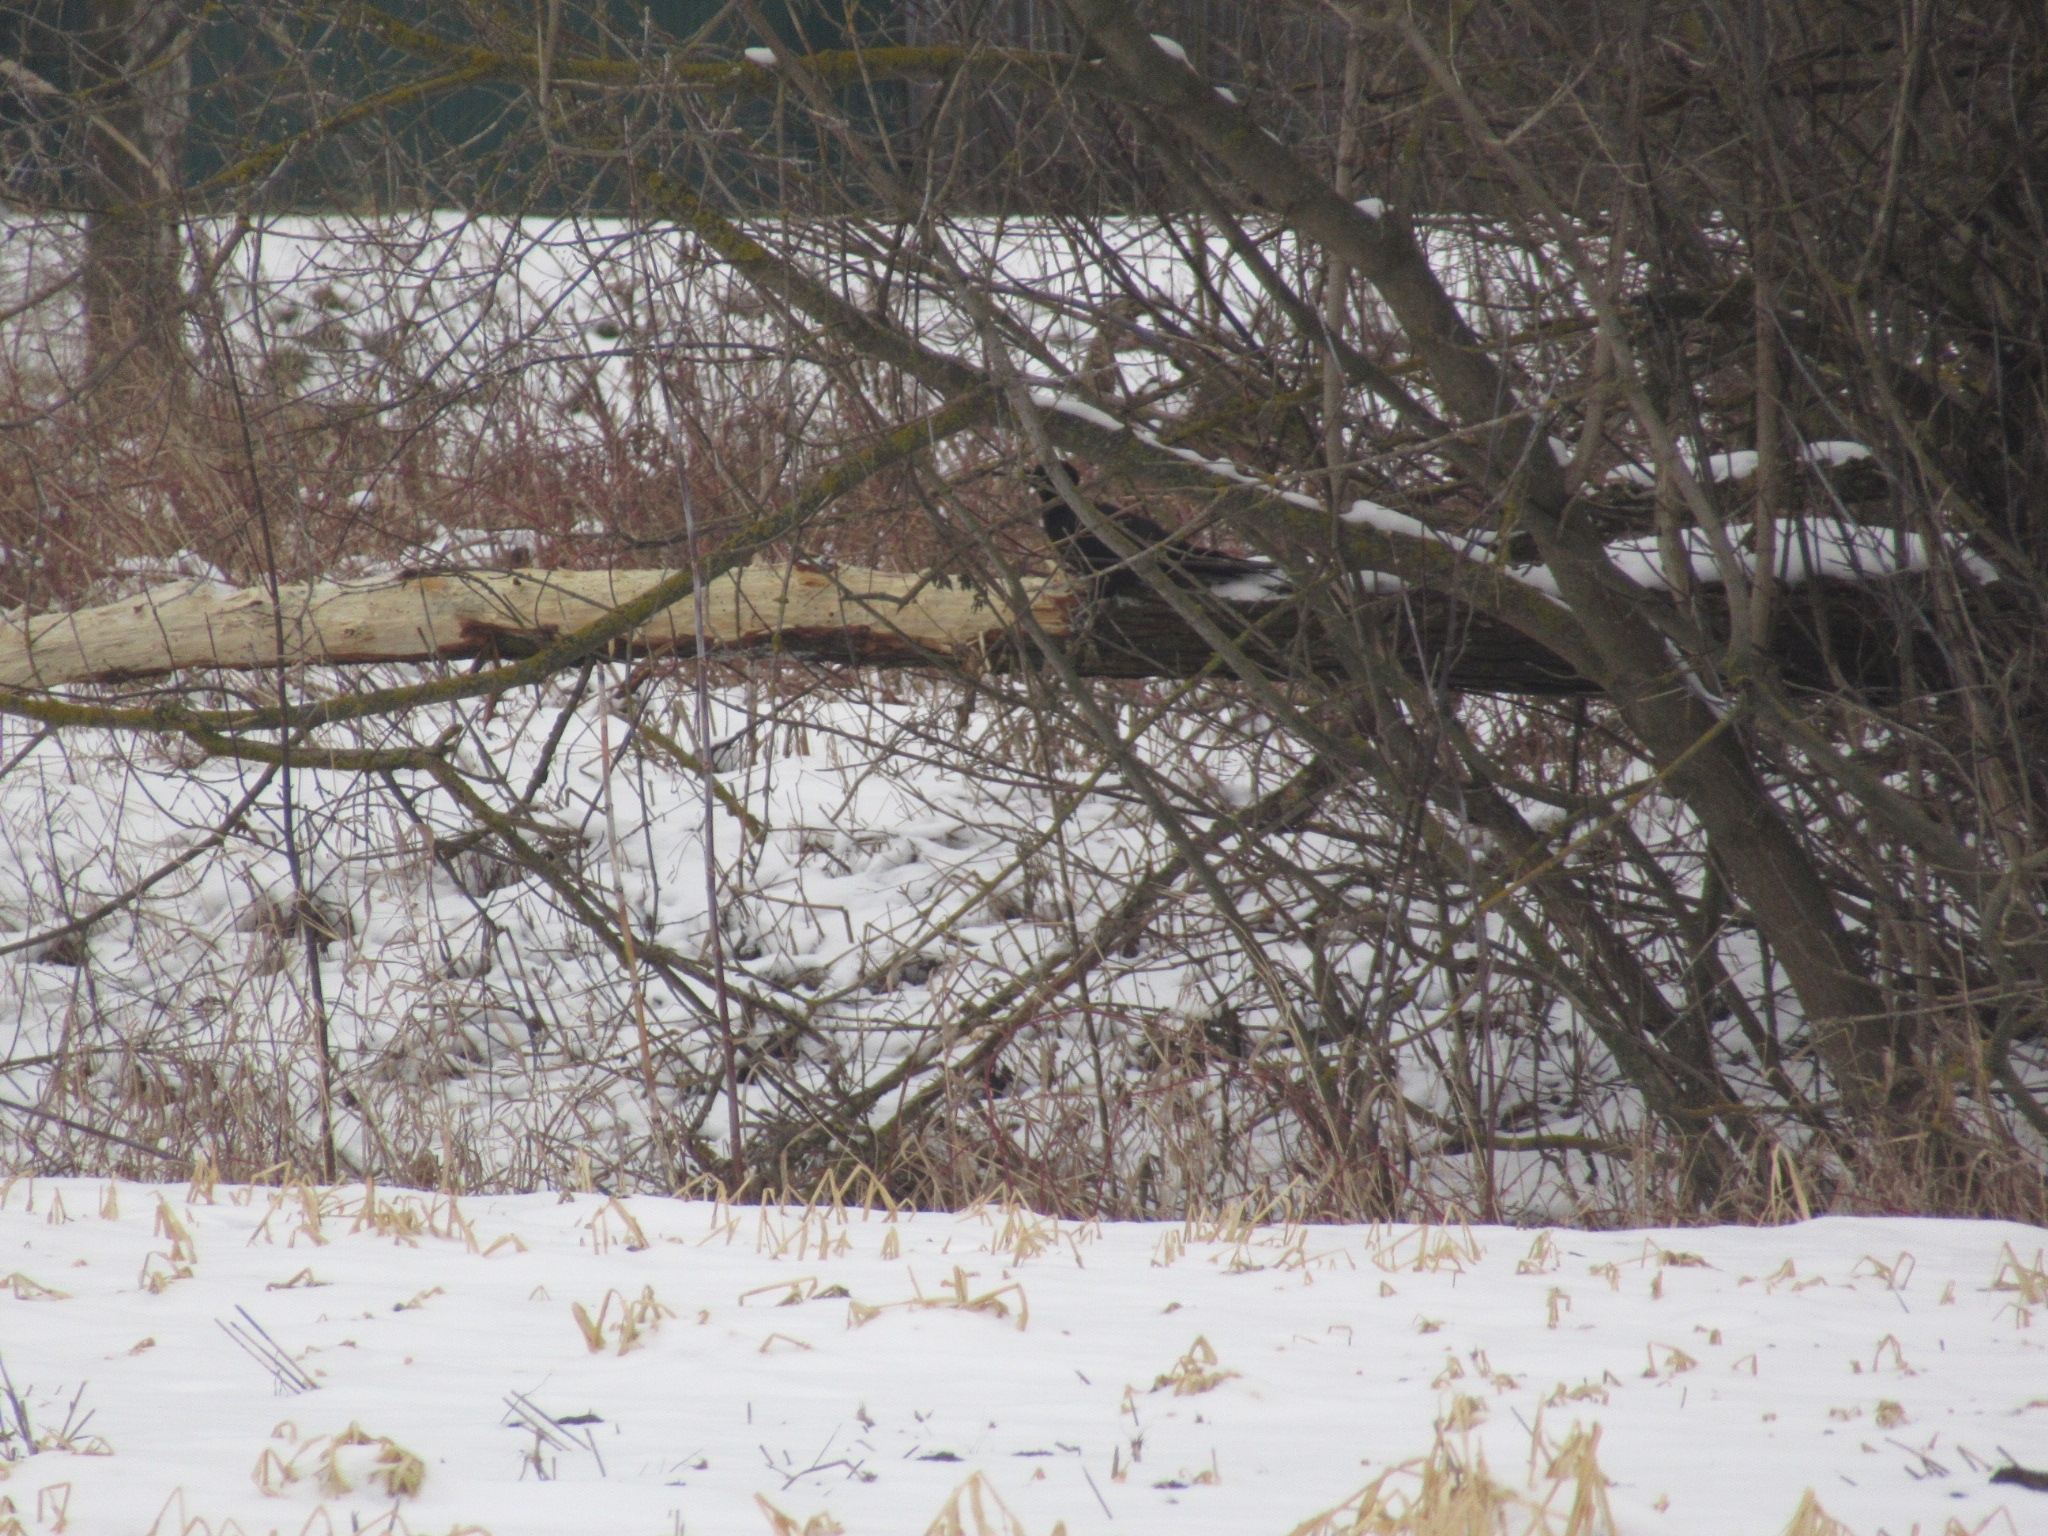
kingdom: Animalia
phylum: Chordata
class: Aves
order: Piciformes
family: Picidae
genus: Dryocopus
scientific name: Dryocopus martius
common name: Black woodpecker
